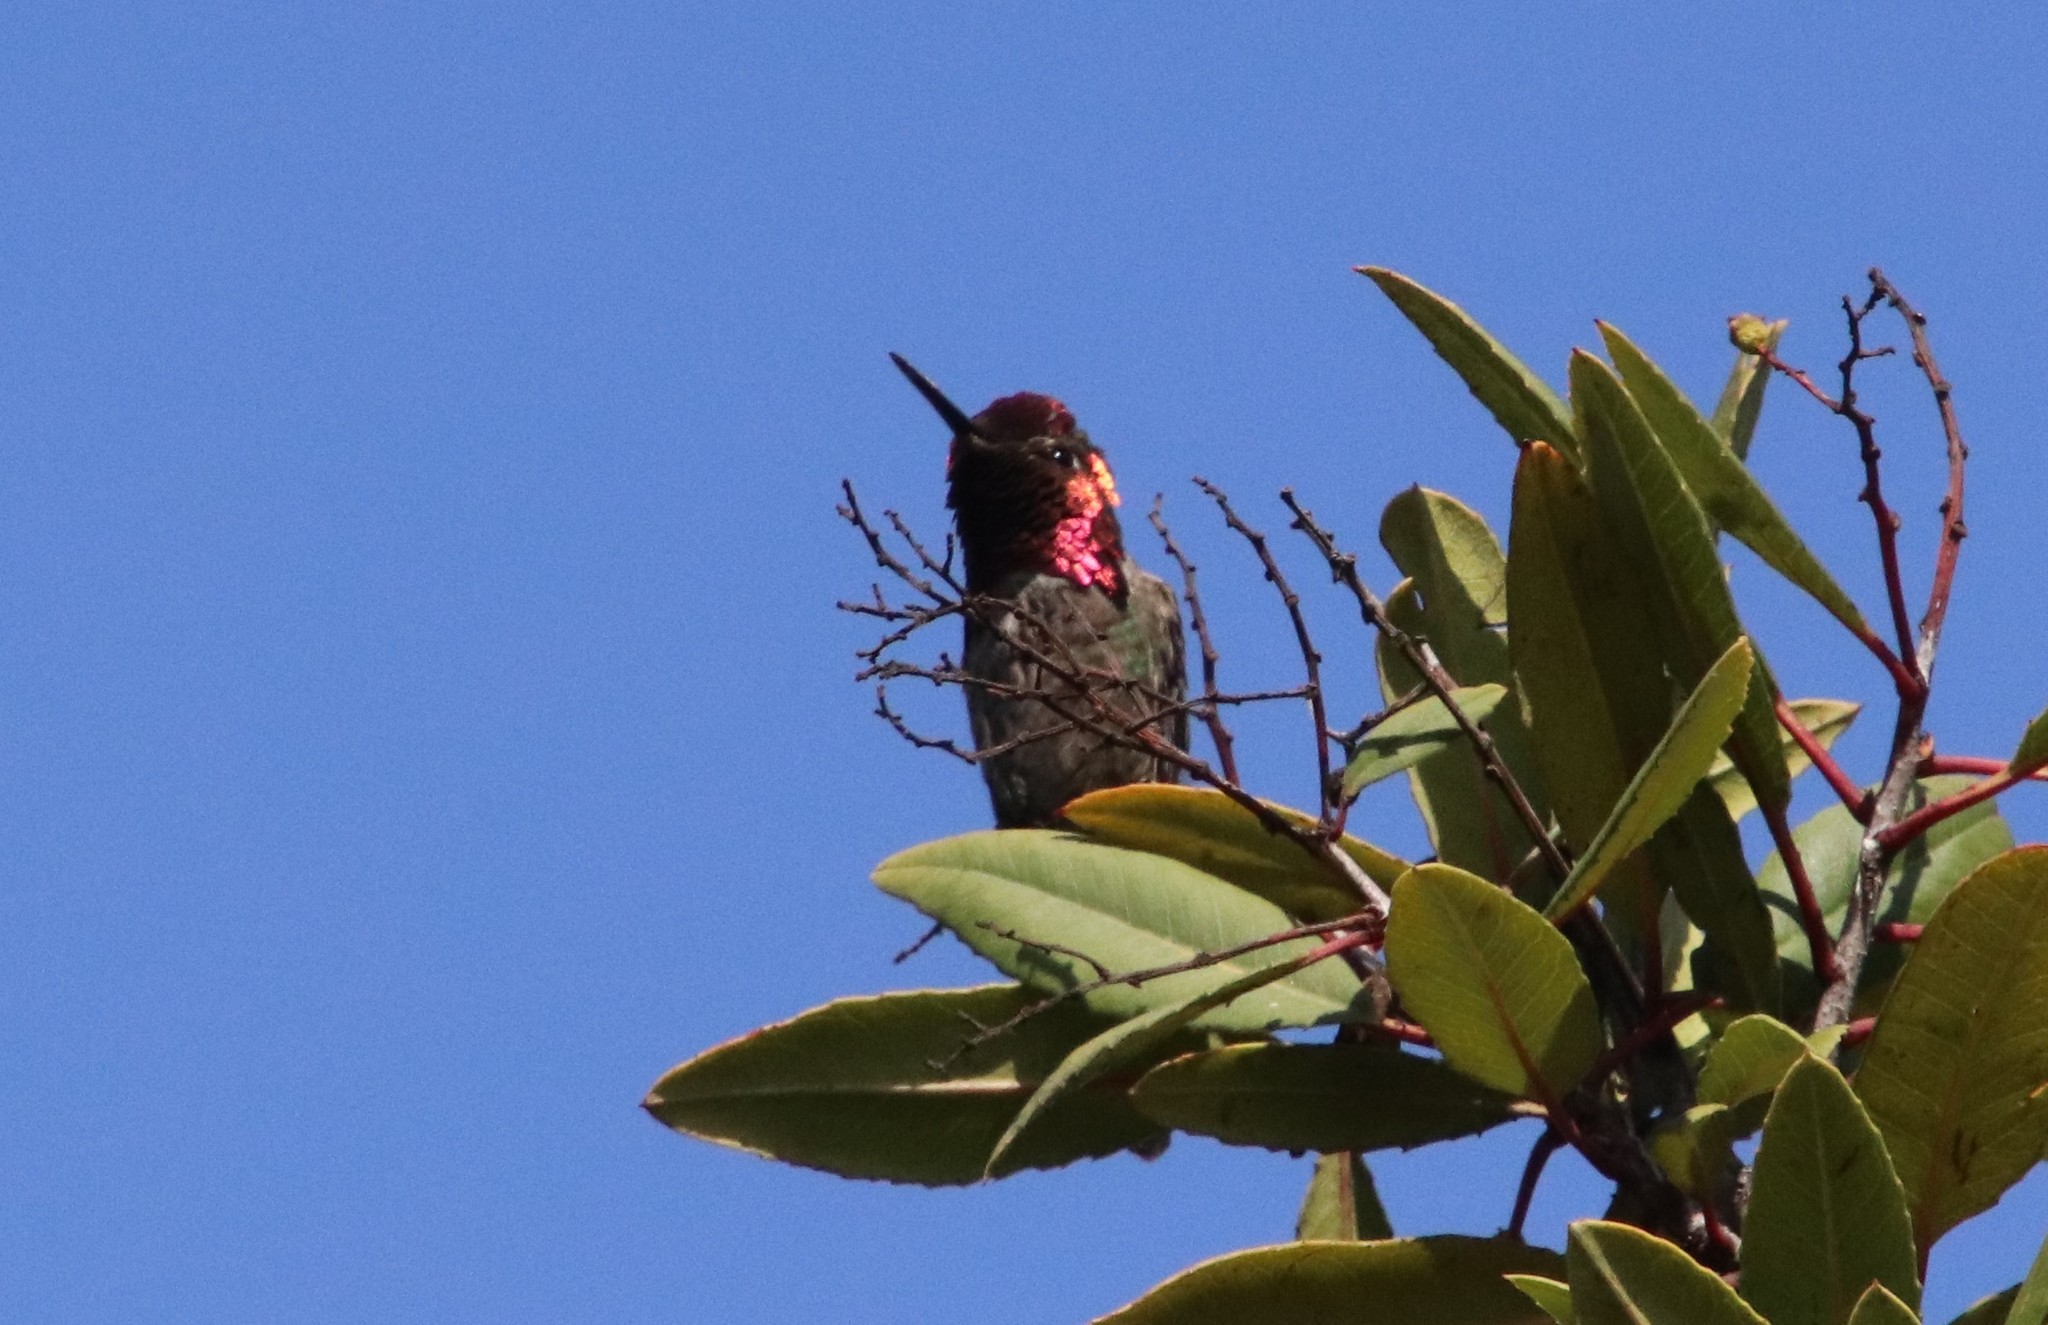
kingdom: Animalia
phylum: Chordata
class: Aves
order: Apodiformes
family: Trochilidae
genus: Calypte
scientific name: Calypte anna
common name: Anna's hummingbird
